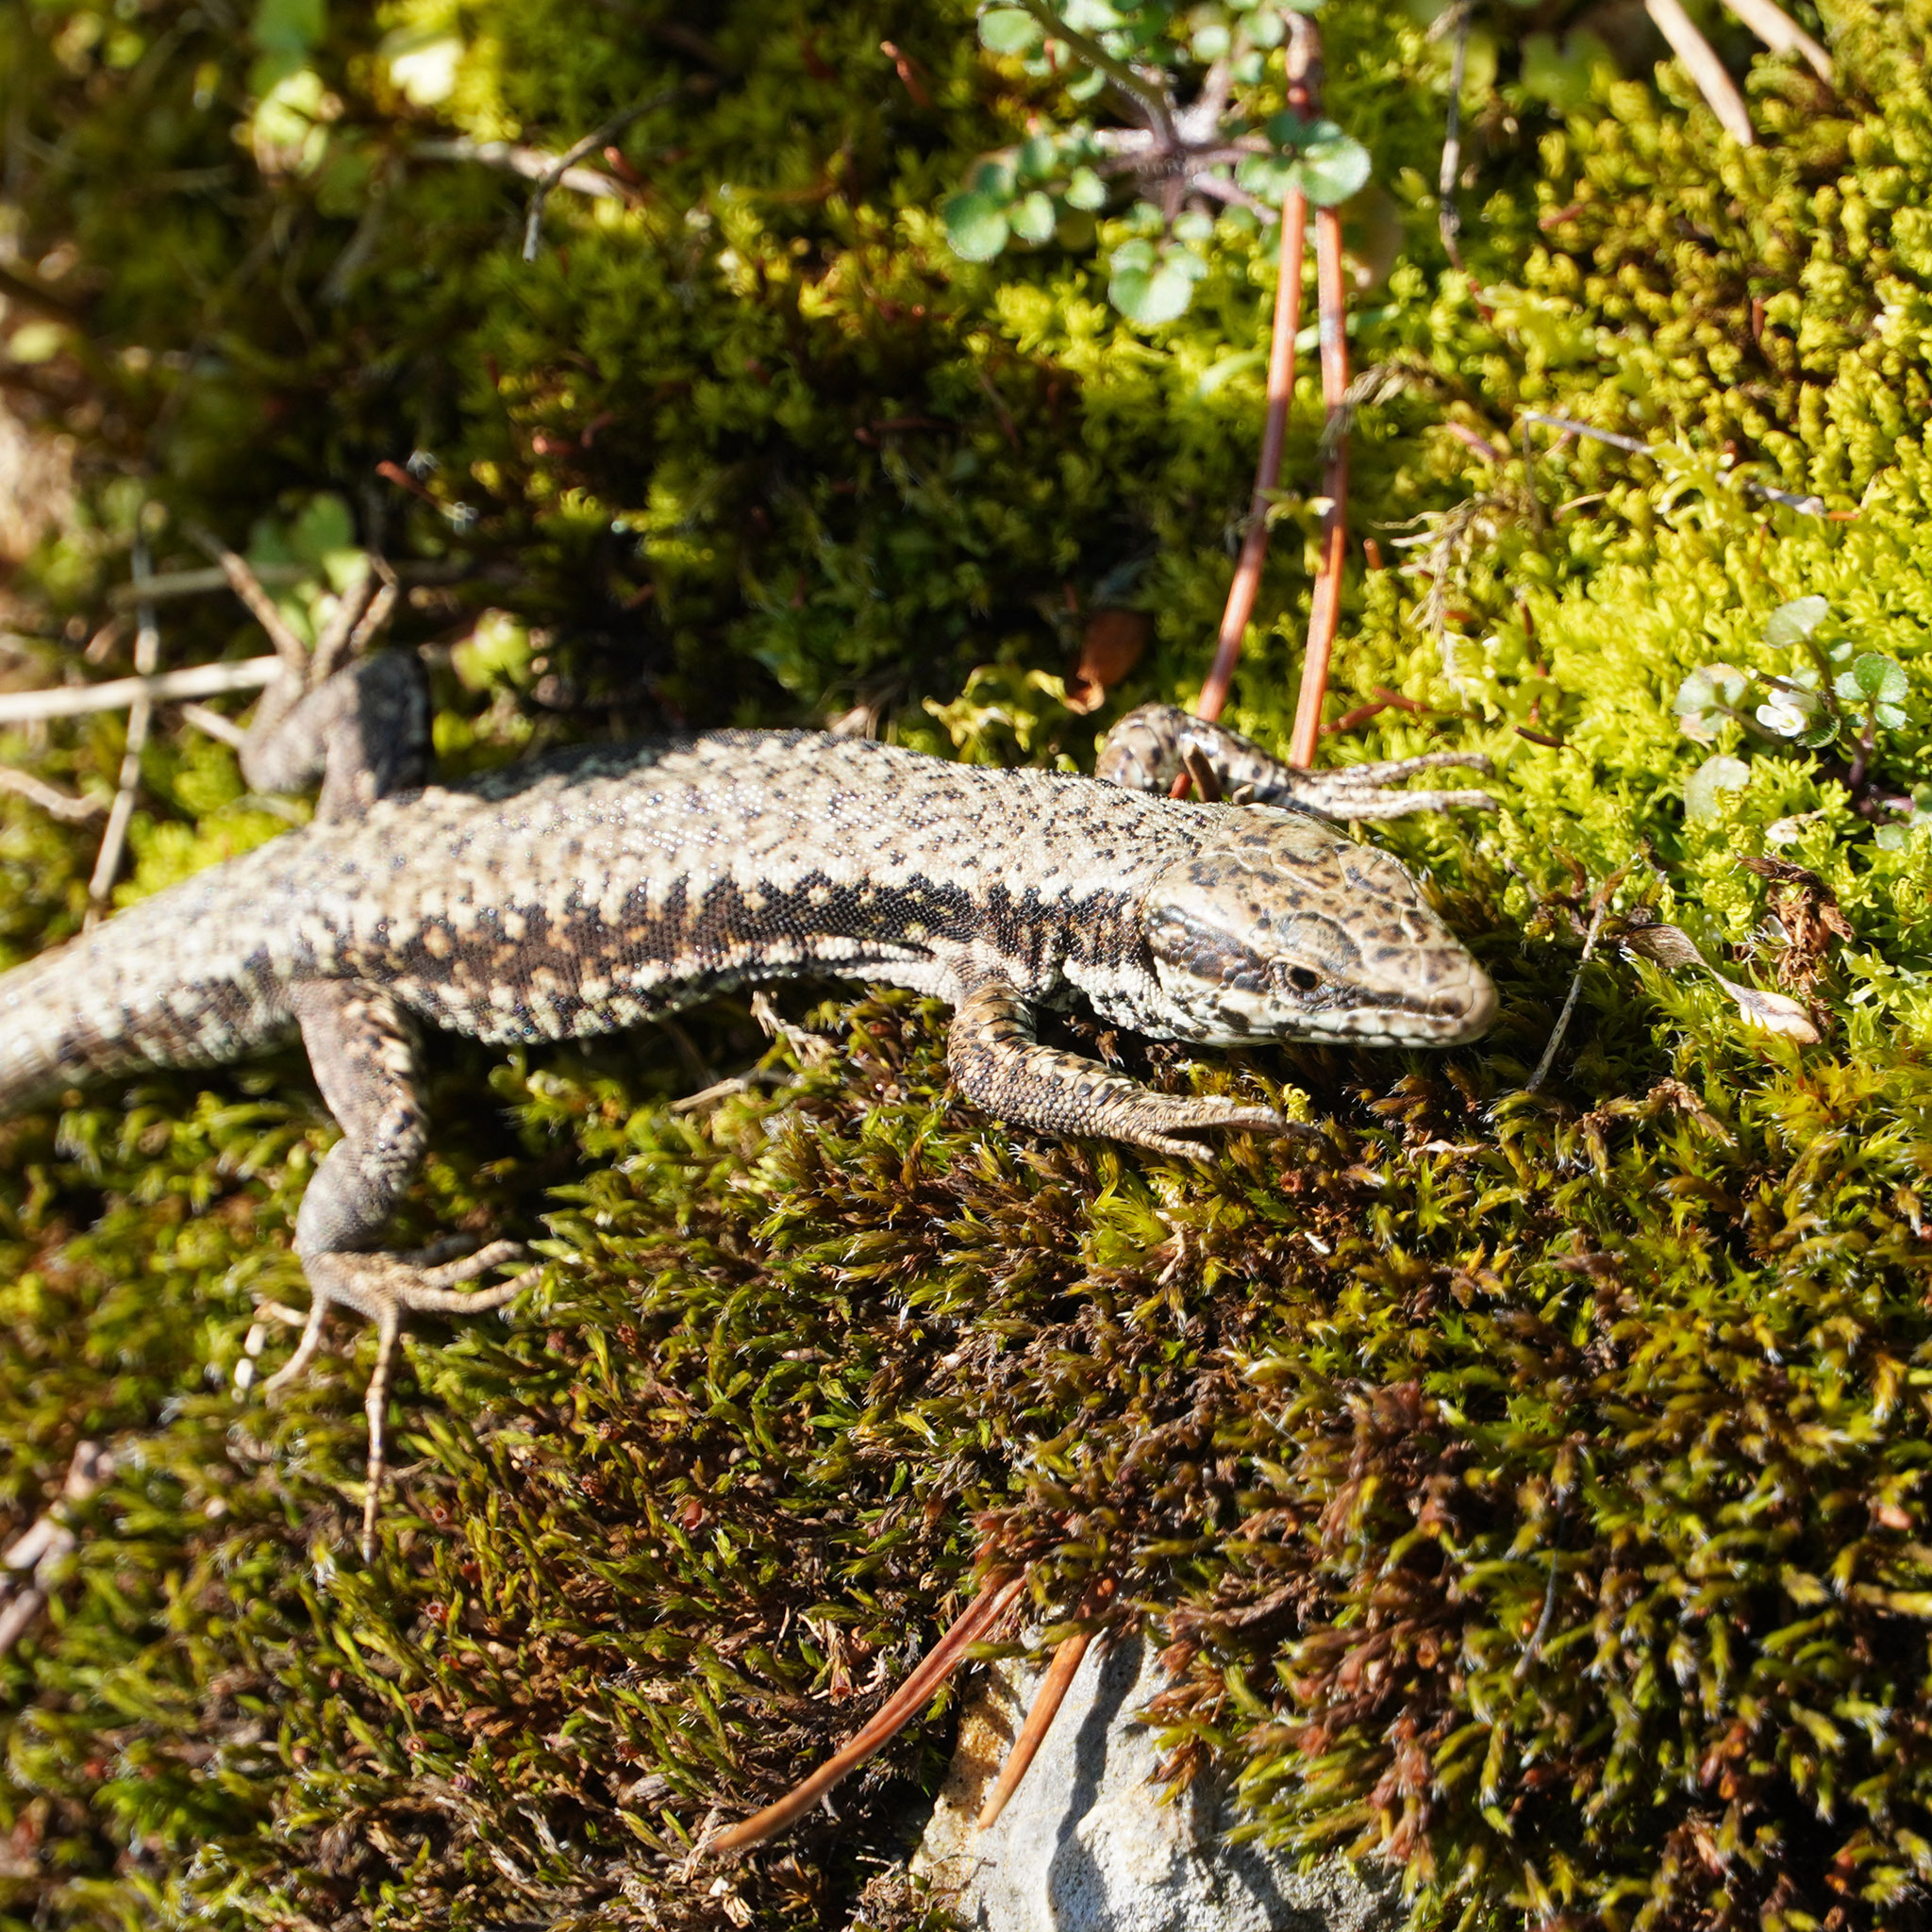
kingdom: Animalia
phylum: Chordata
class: Squamata
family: Lacertidae
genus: Podarcis
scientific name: Podarcis muralis
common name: Common wall lizard
